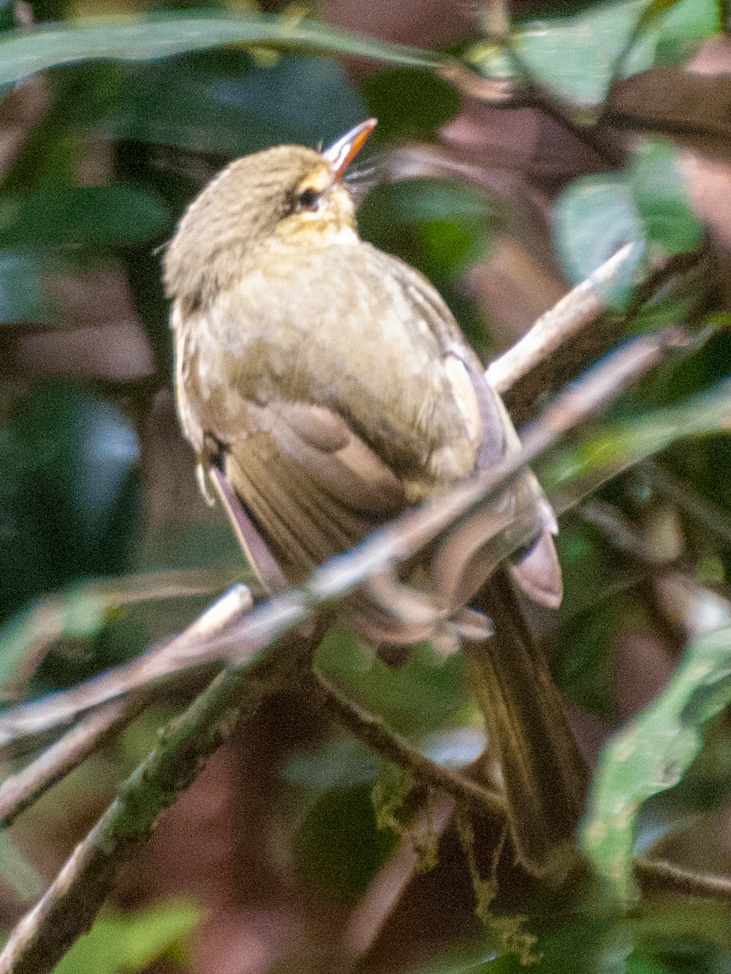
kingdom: Animalia
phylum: Chordata
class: Aves
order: Passeriformes
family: Bernieridae
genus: Xanthomixis
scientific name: Xanthomixis zosterops
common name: Spectacled tetraka
